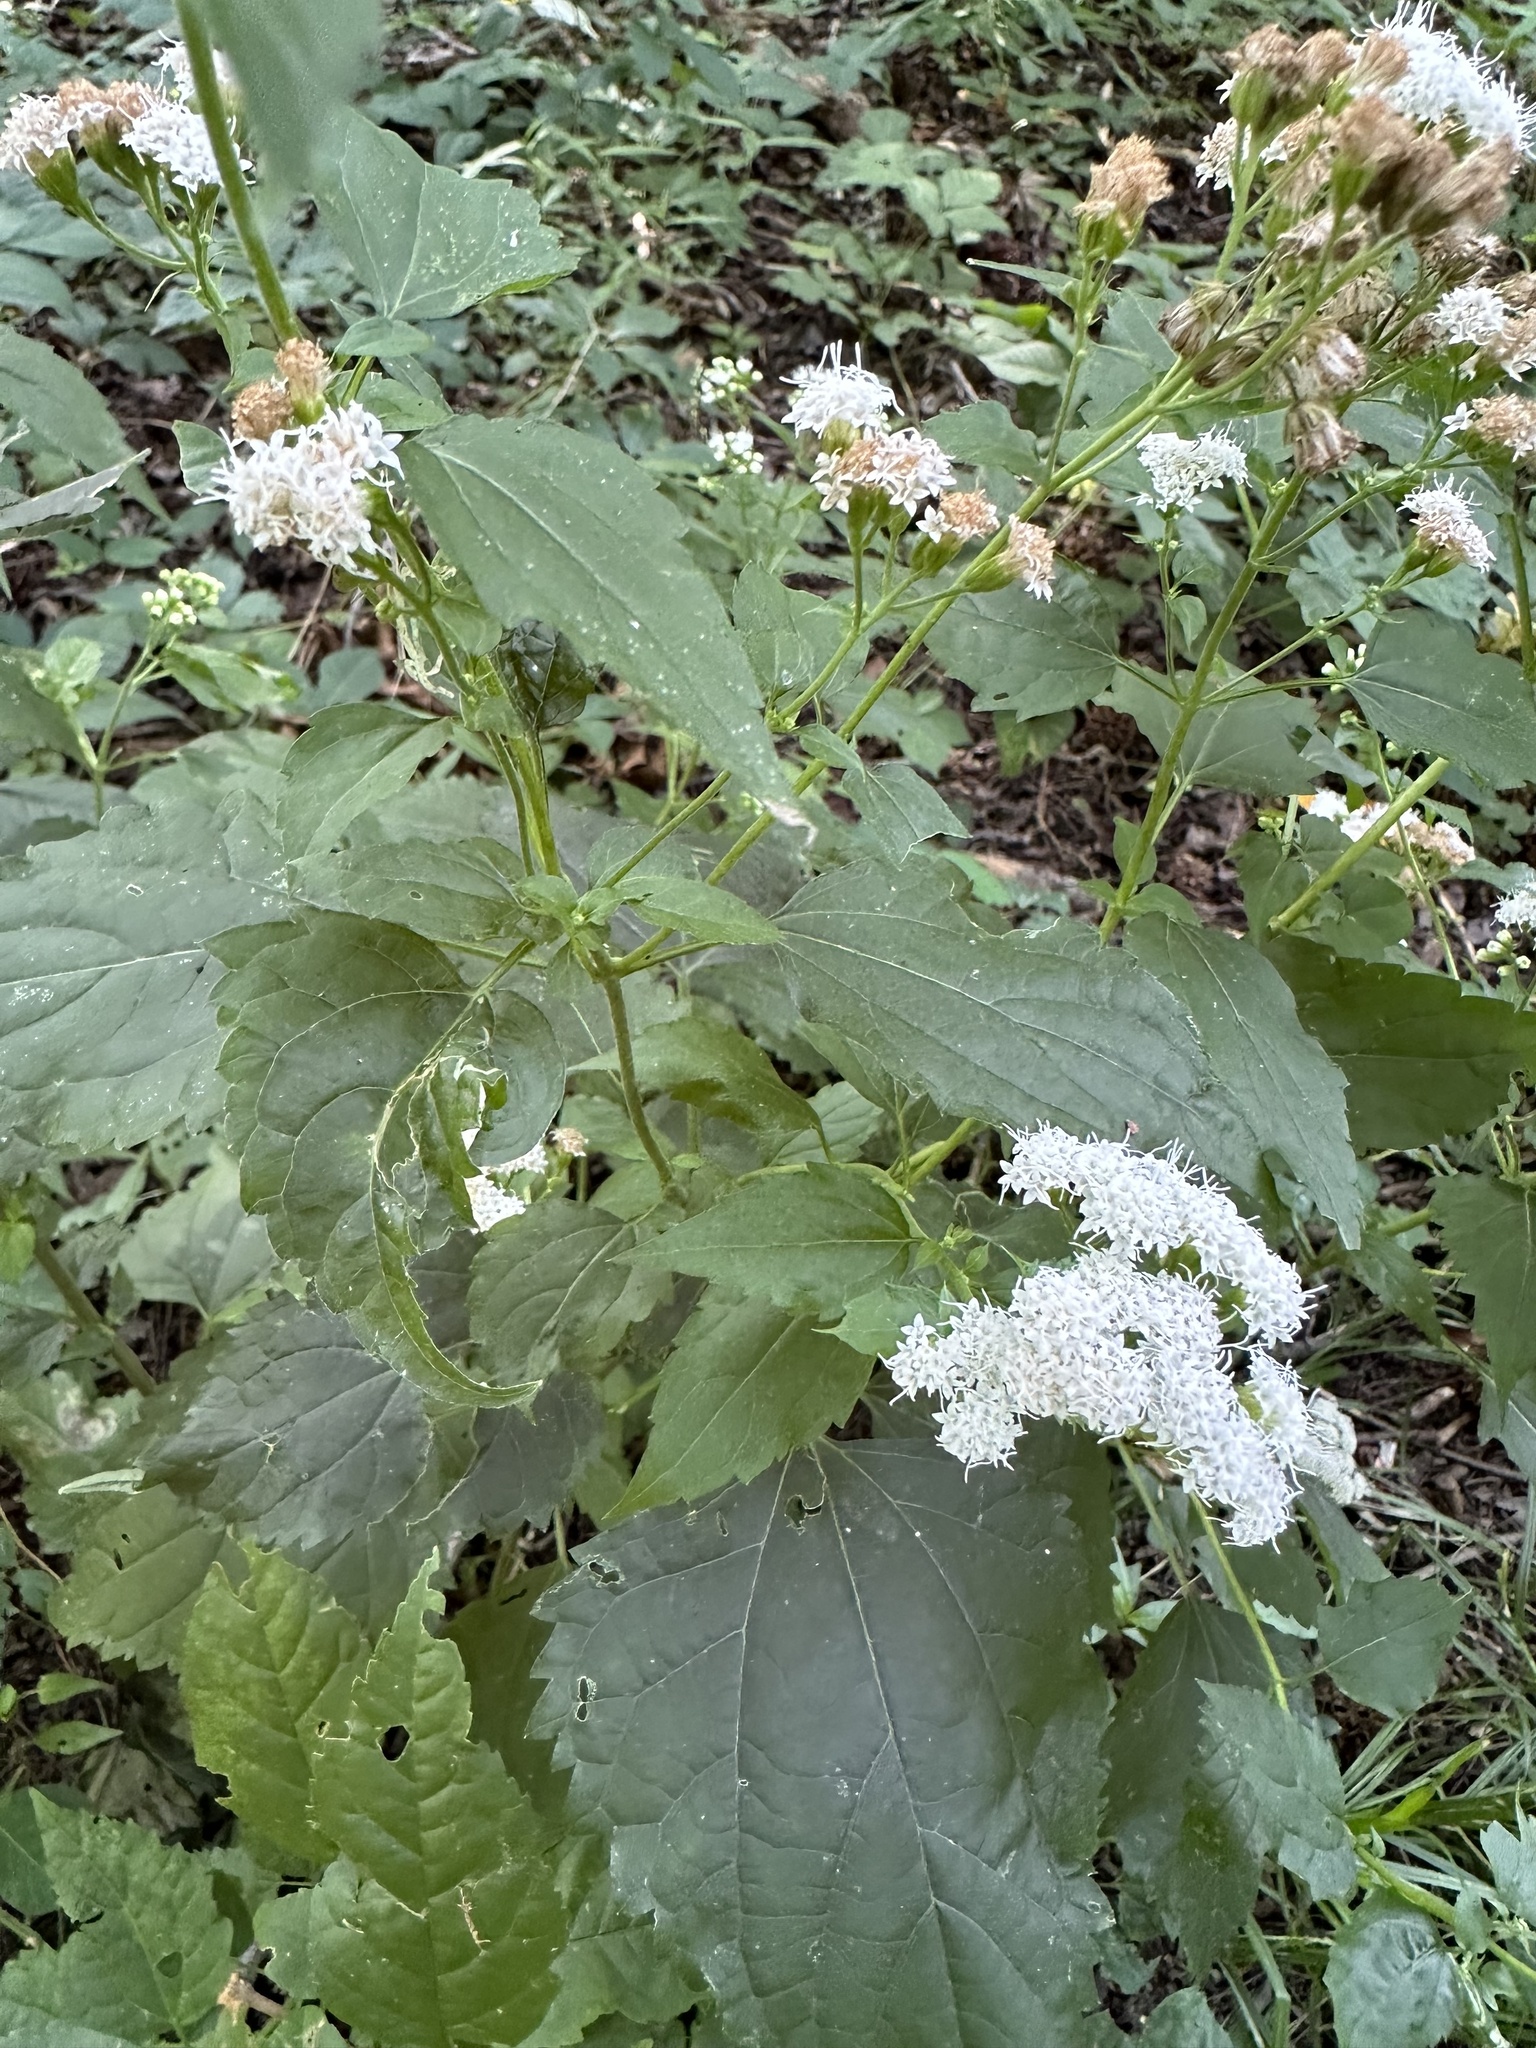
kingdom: Plantae
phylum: Tracheophyta
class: Magnoliopsida
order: Asterales
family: Asteraceae
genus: Ageratina
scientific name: Ageratina altissima
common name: White snakeroot
